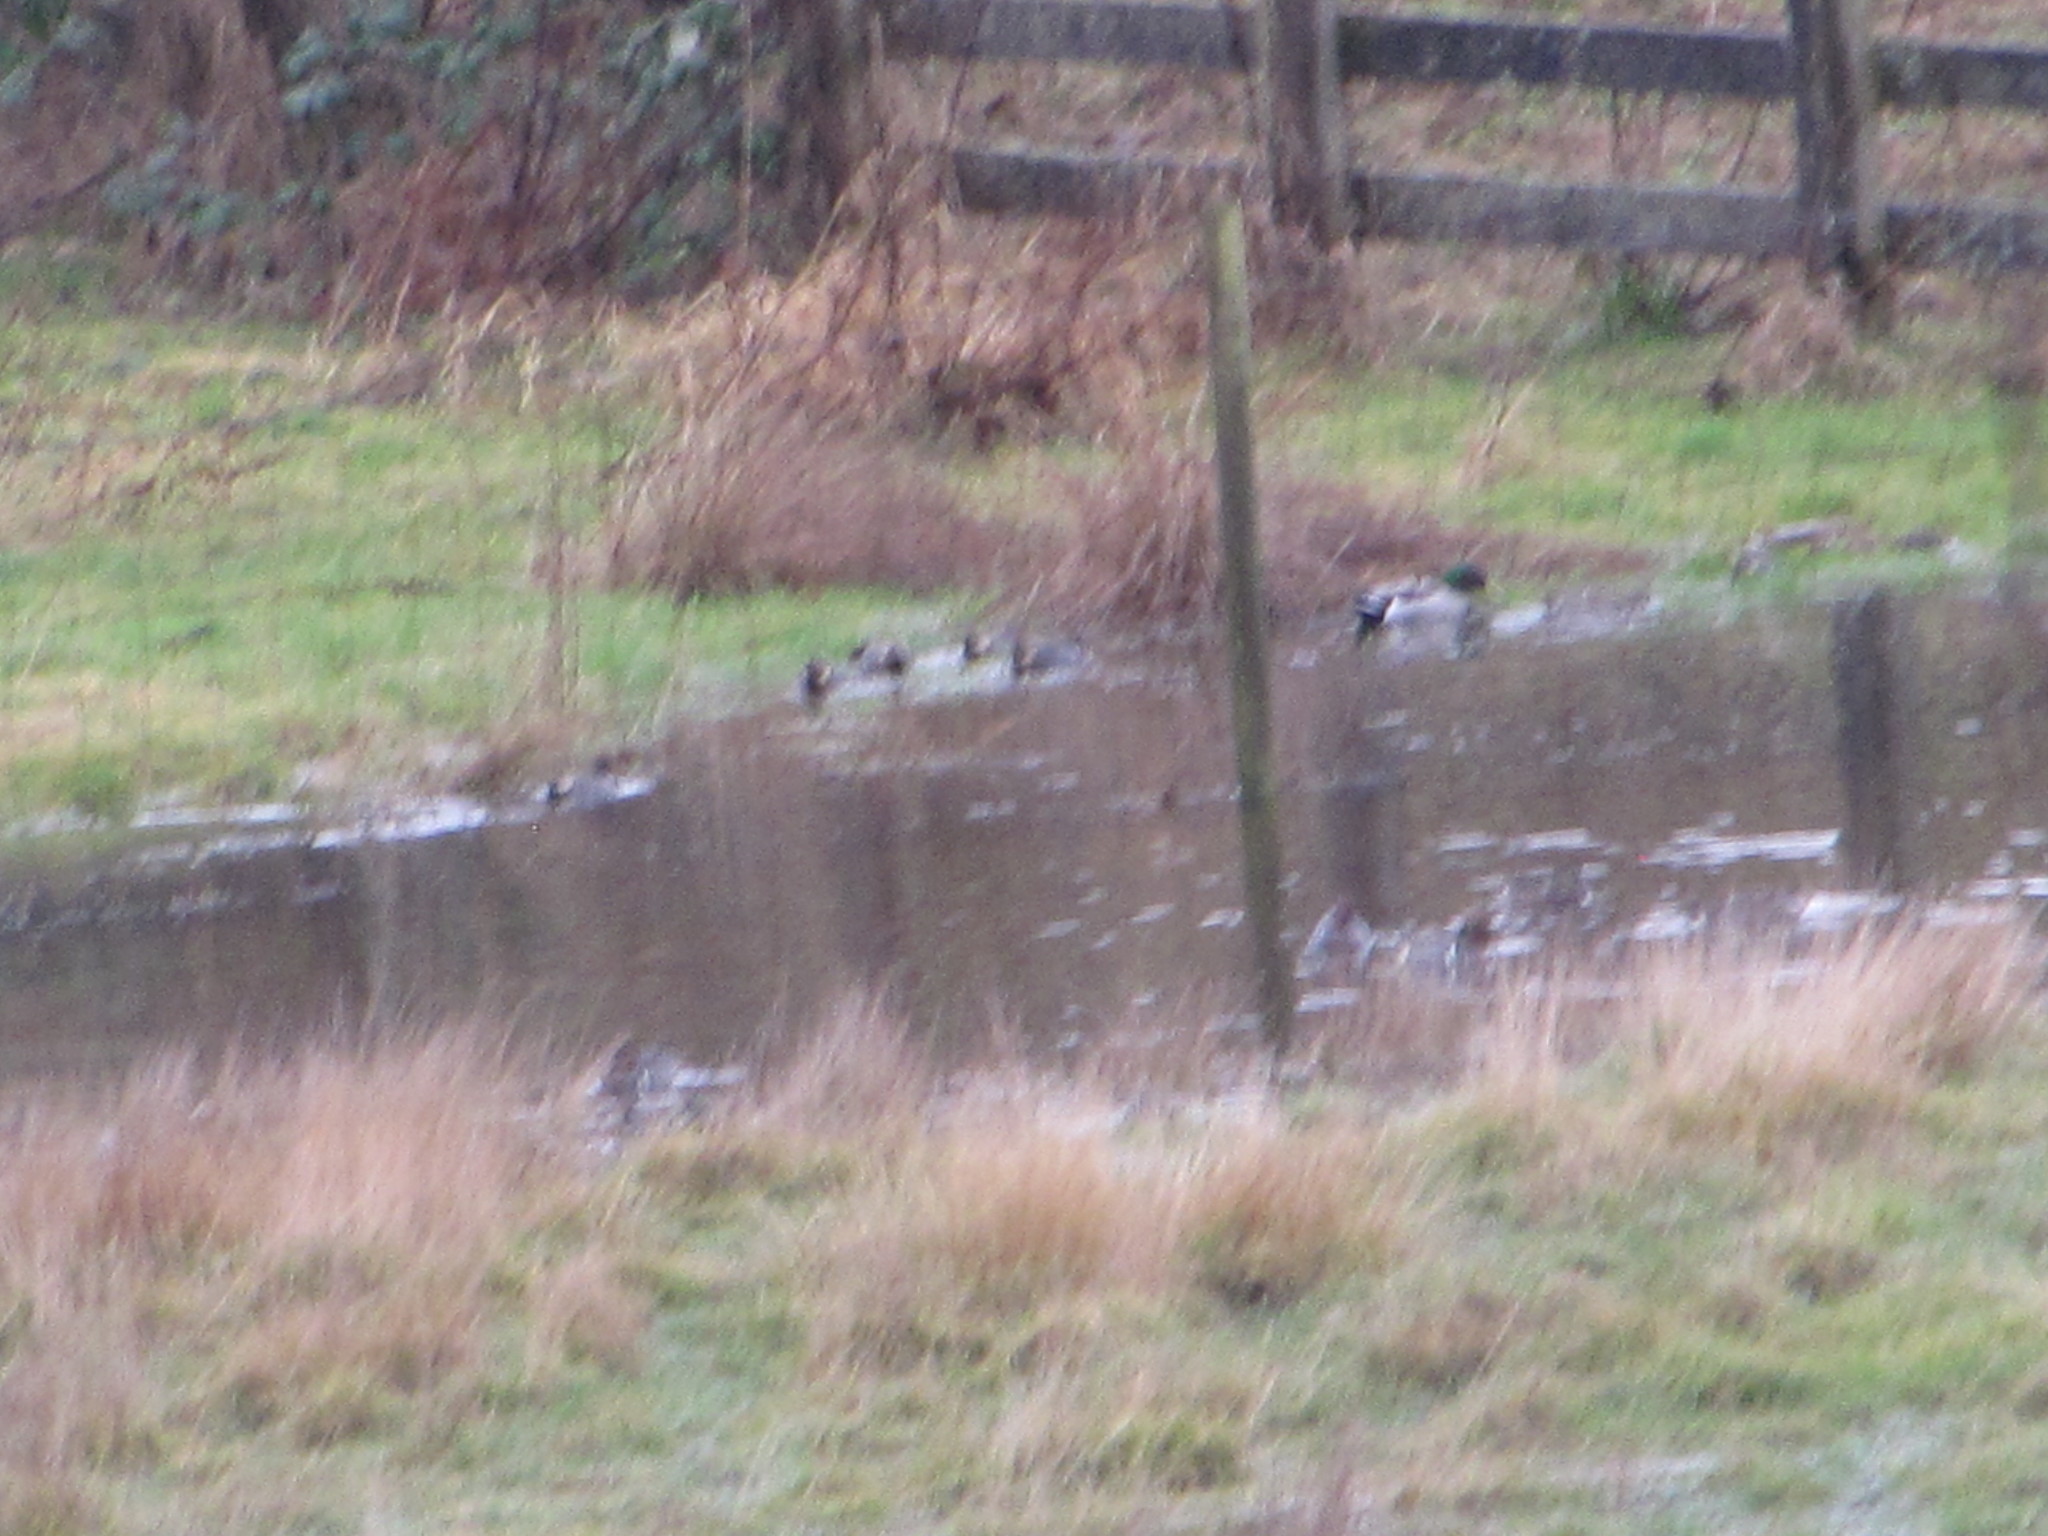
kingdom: Animalia
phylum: Chordata
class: Aves
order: Anseriformes
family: Anatidae
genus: Anas
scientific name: Anas platyrhynchos
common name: Mallard
